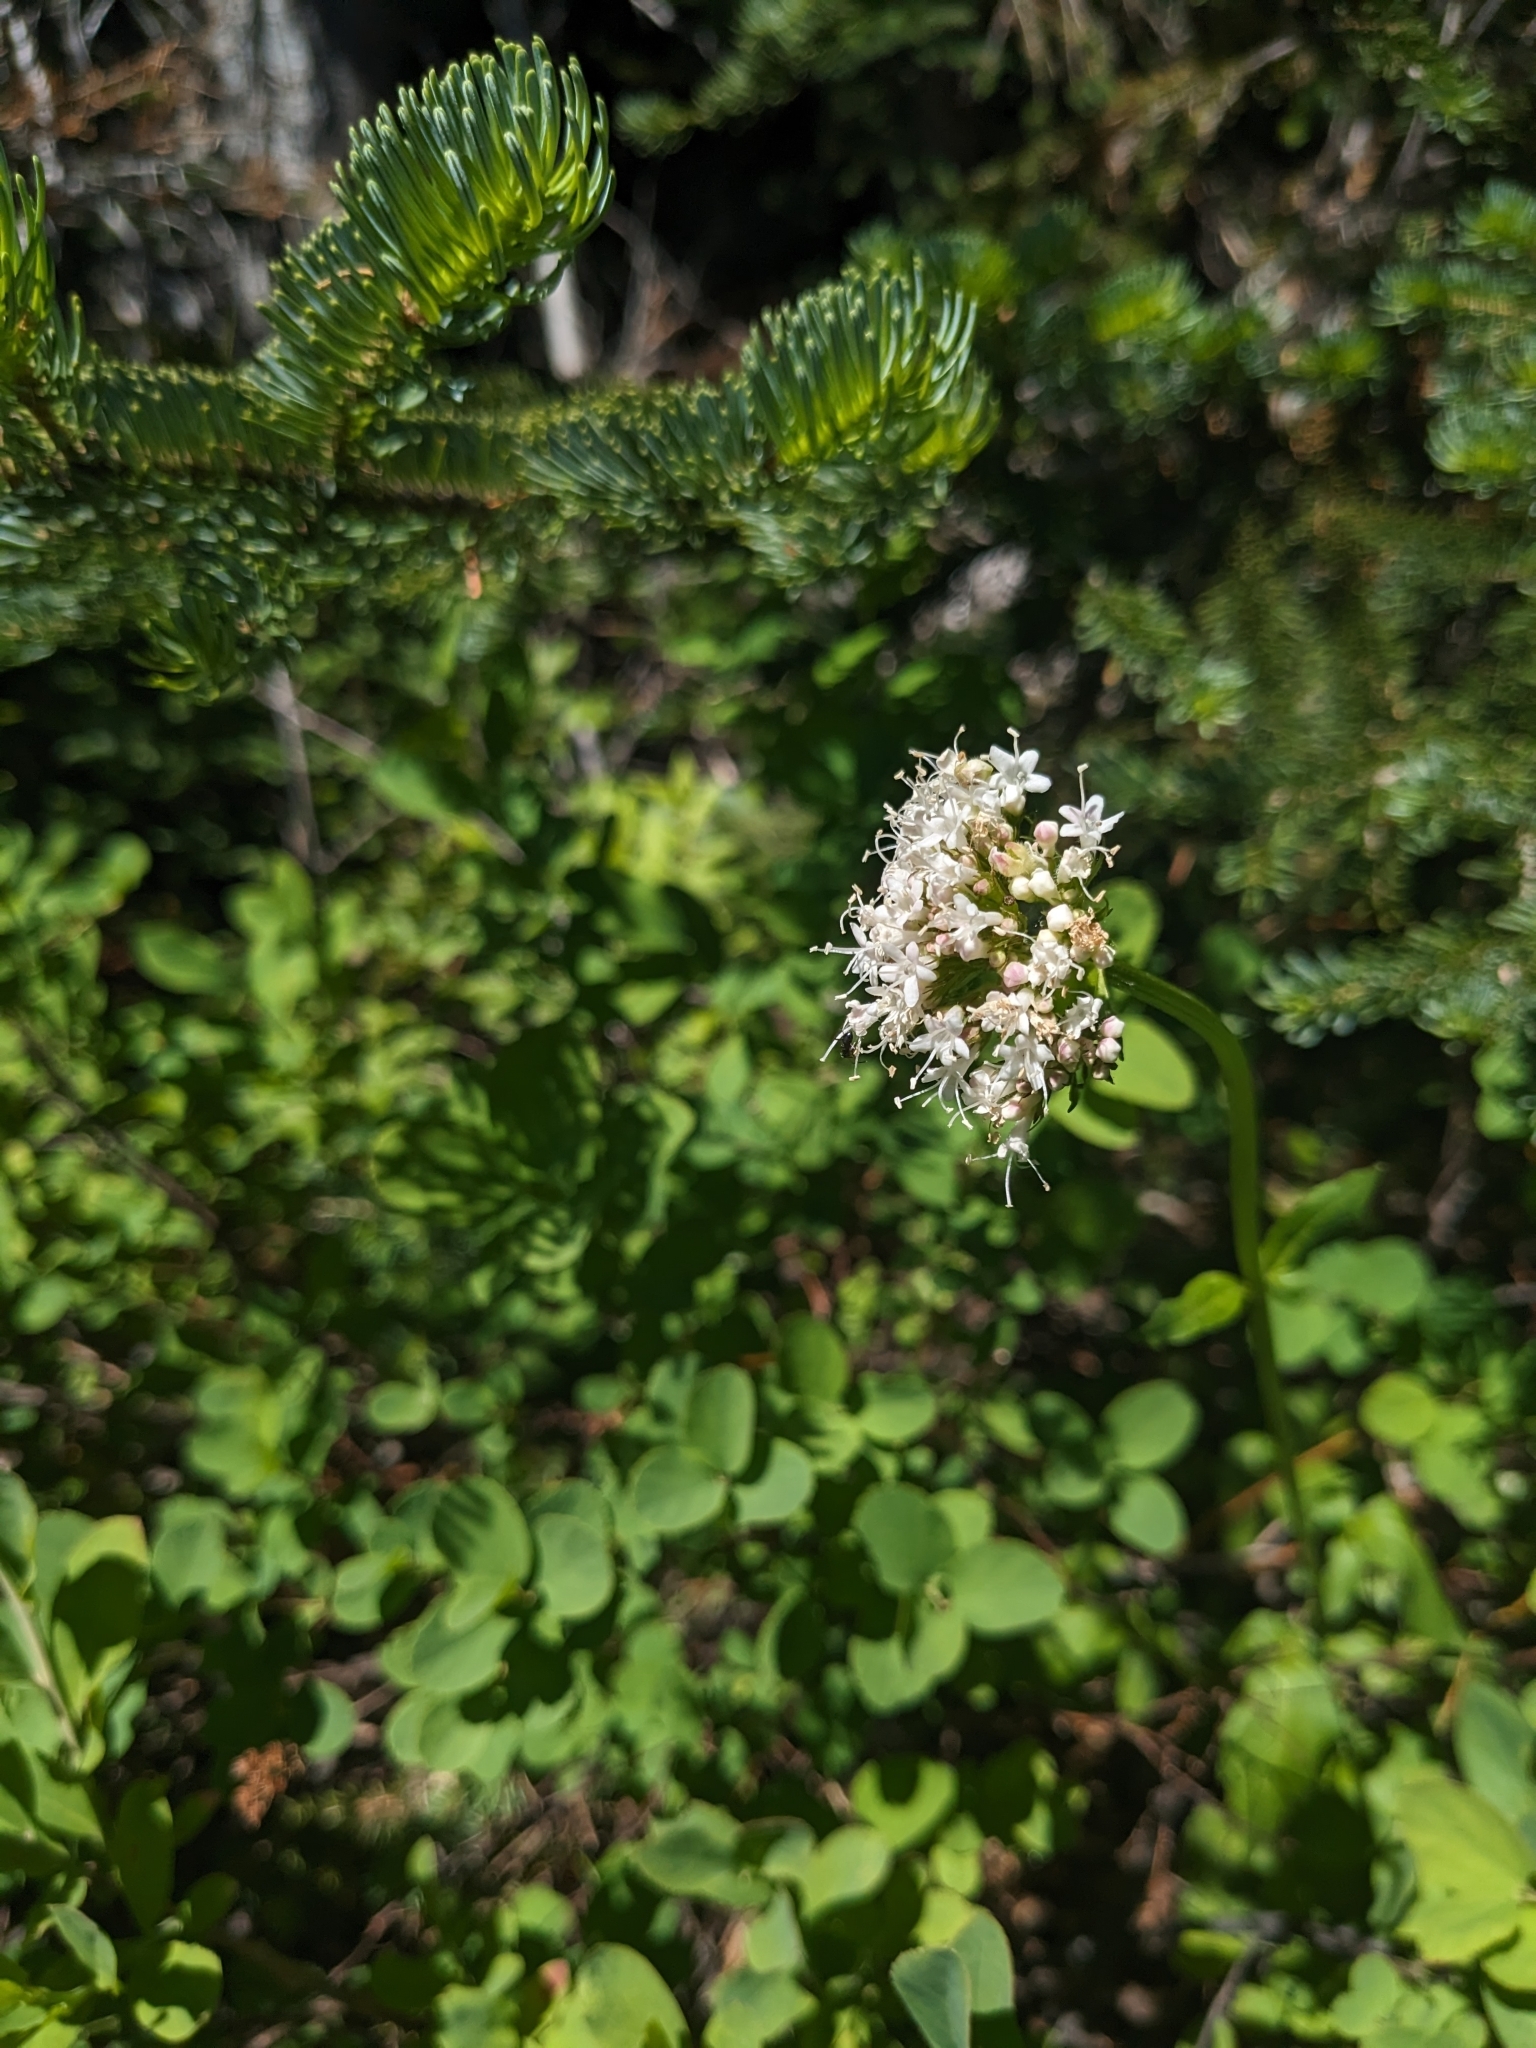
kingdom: Plantae
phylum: Tracheophyta
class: Magnoliopsida
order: Dipsacales
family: Caprifoliaceae
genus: Valeriana
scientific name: Valeriana sitchensis
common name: Pacific valerian
